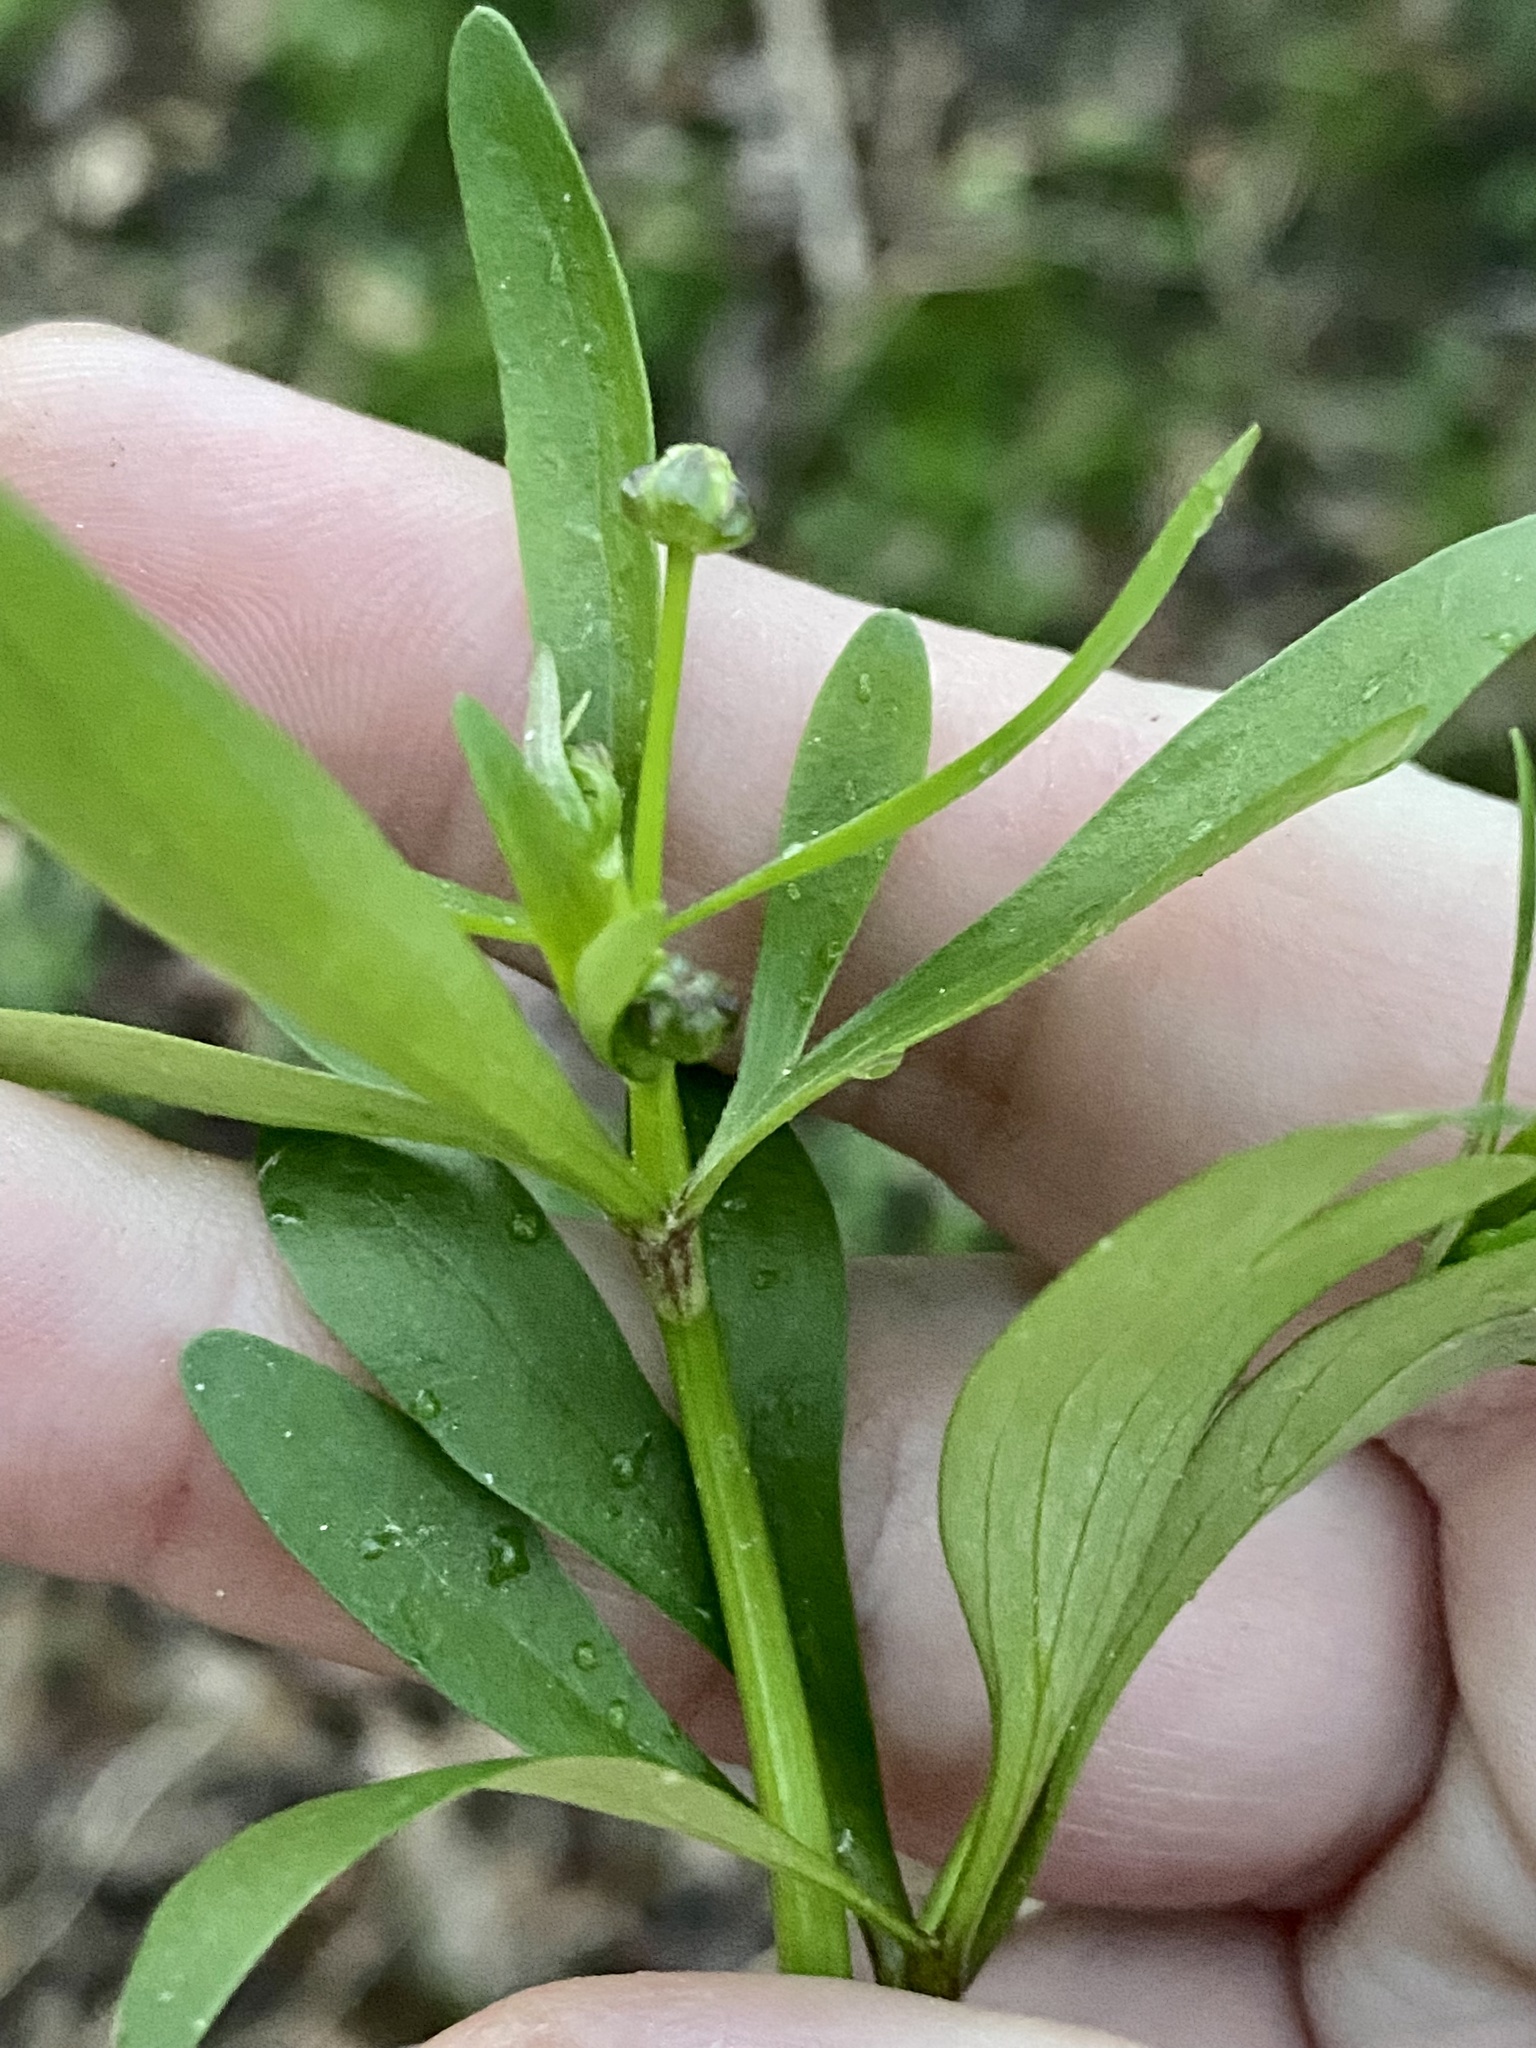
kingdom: Plantae
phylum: Tracheophyta
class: Magnoliopsida
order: Ranunculales
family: Ranunculaceae
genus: Ranunculus
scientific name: Ranunculus abortivus
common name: Early wood buttercup
